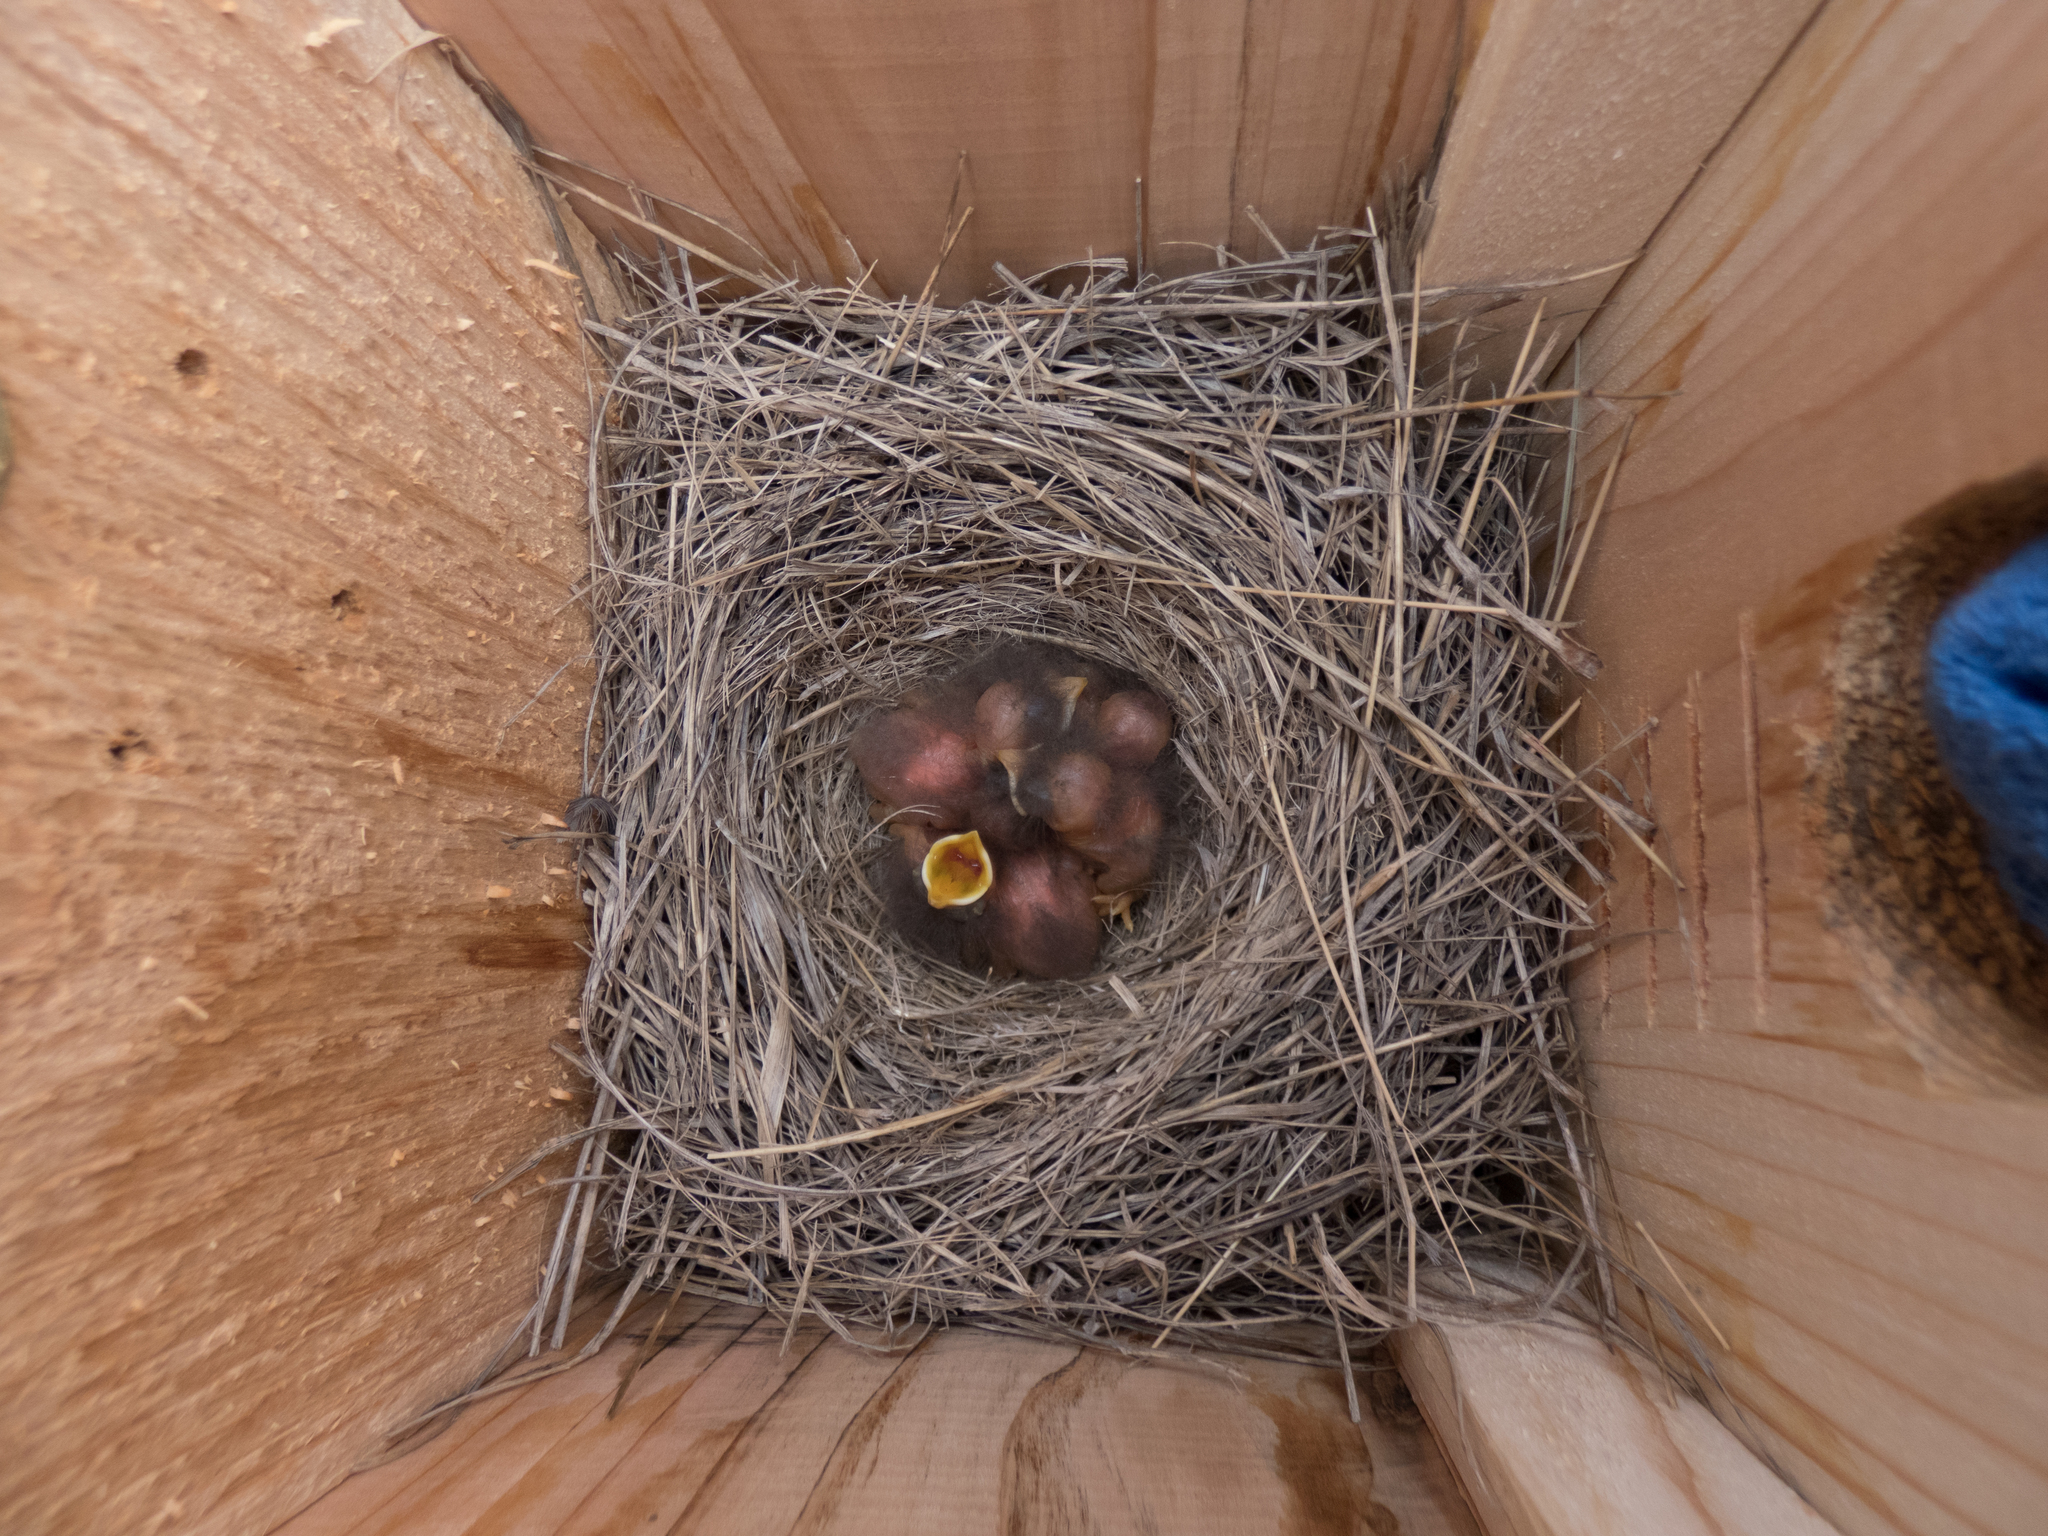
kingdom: Animalia
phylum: Chordata
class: Aves
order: Passeriformes
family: Turdidae
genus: Sialia
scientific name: Sialia currucoides
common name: Mountain bluebird
